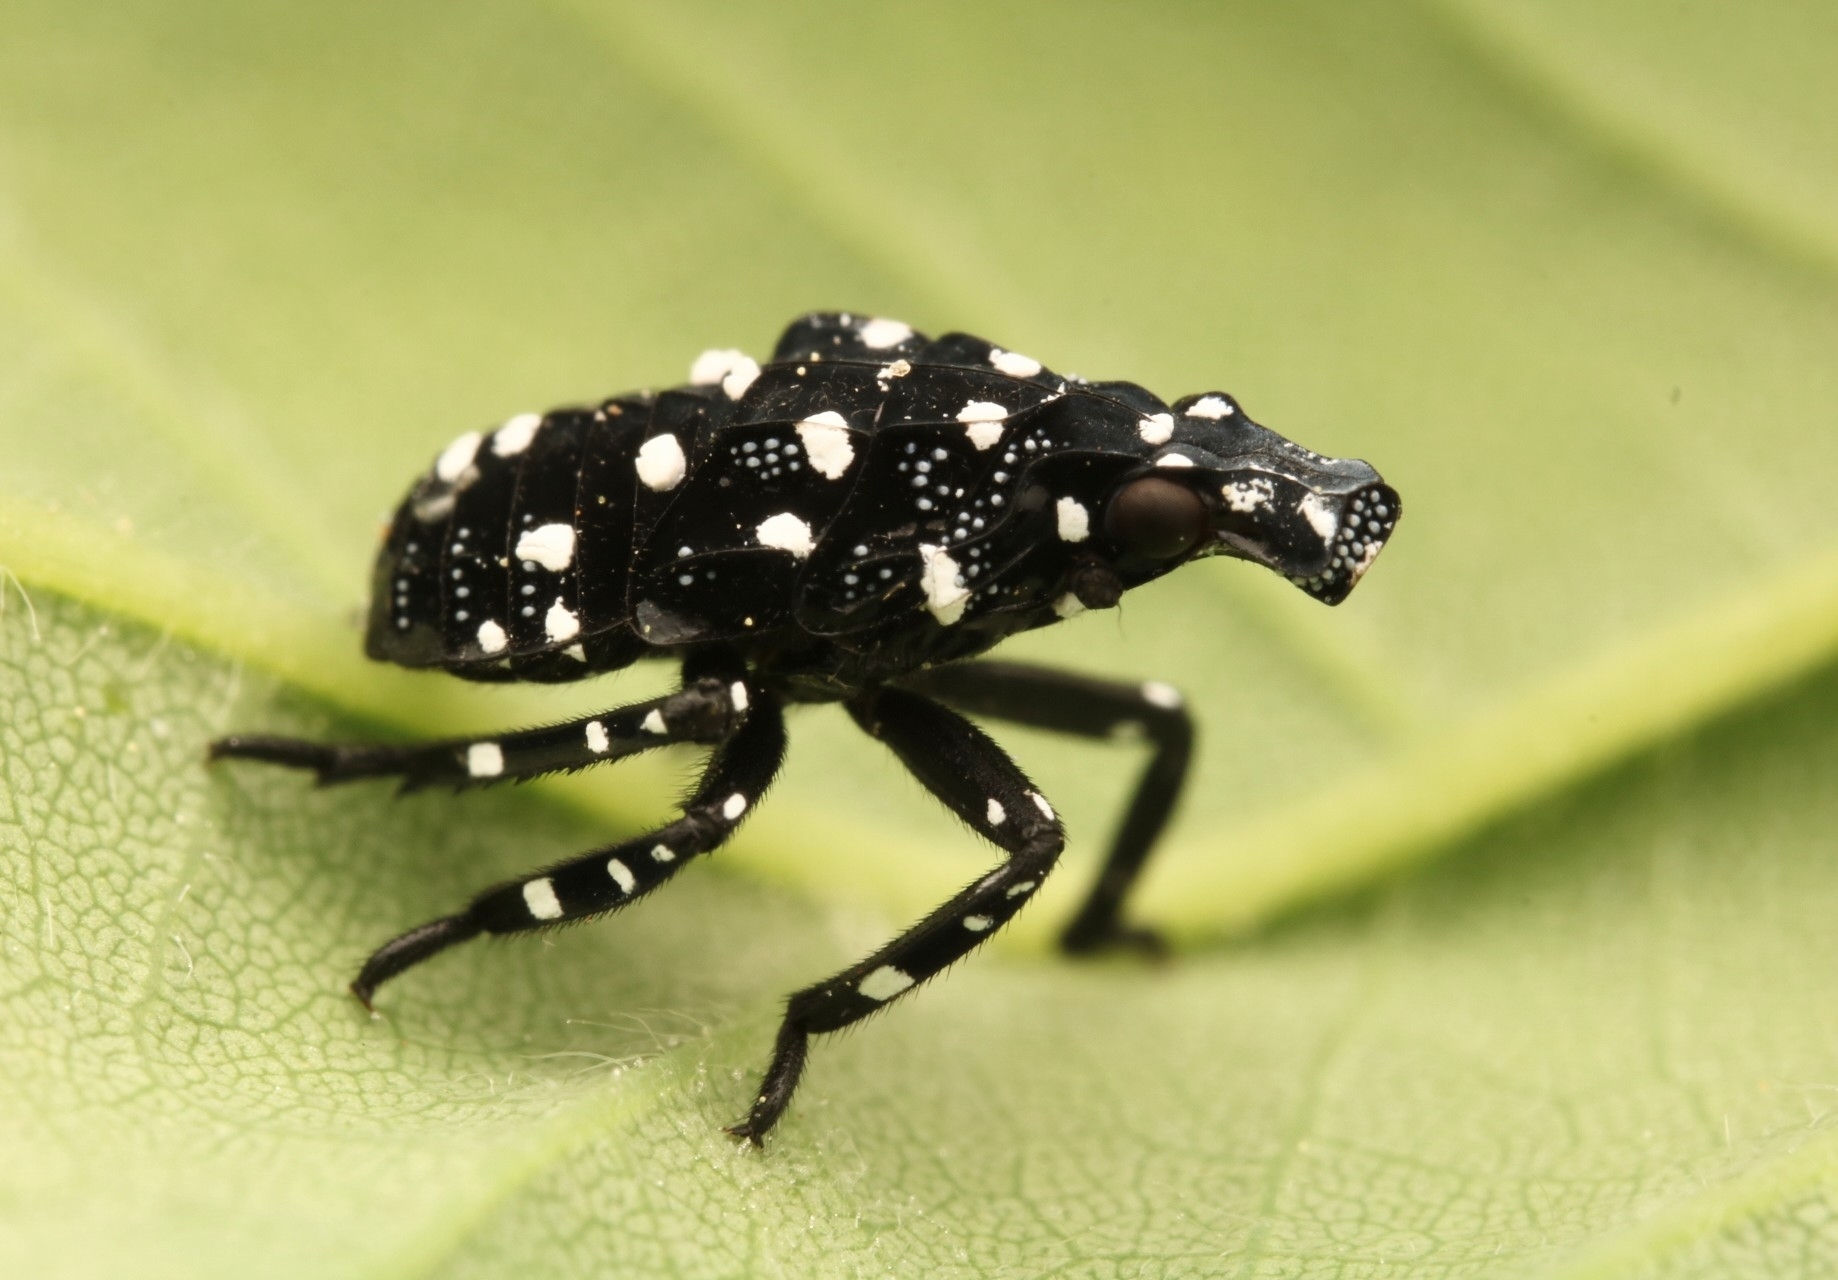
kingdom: Animalia
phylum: Arthropoda
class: Insecta
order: Hemiptera
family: Fulgoridae
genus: Lycorma
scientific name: Lycorma delicatula
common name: Spotted lanternfly
